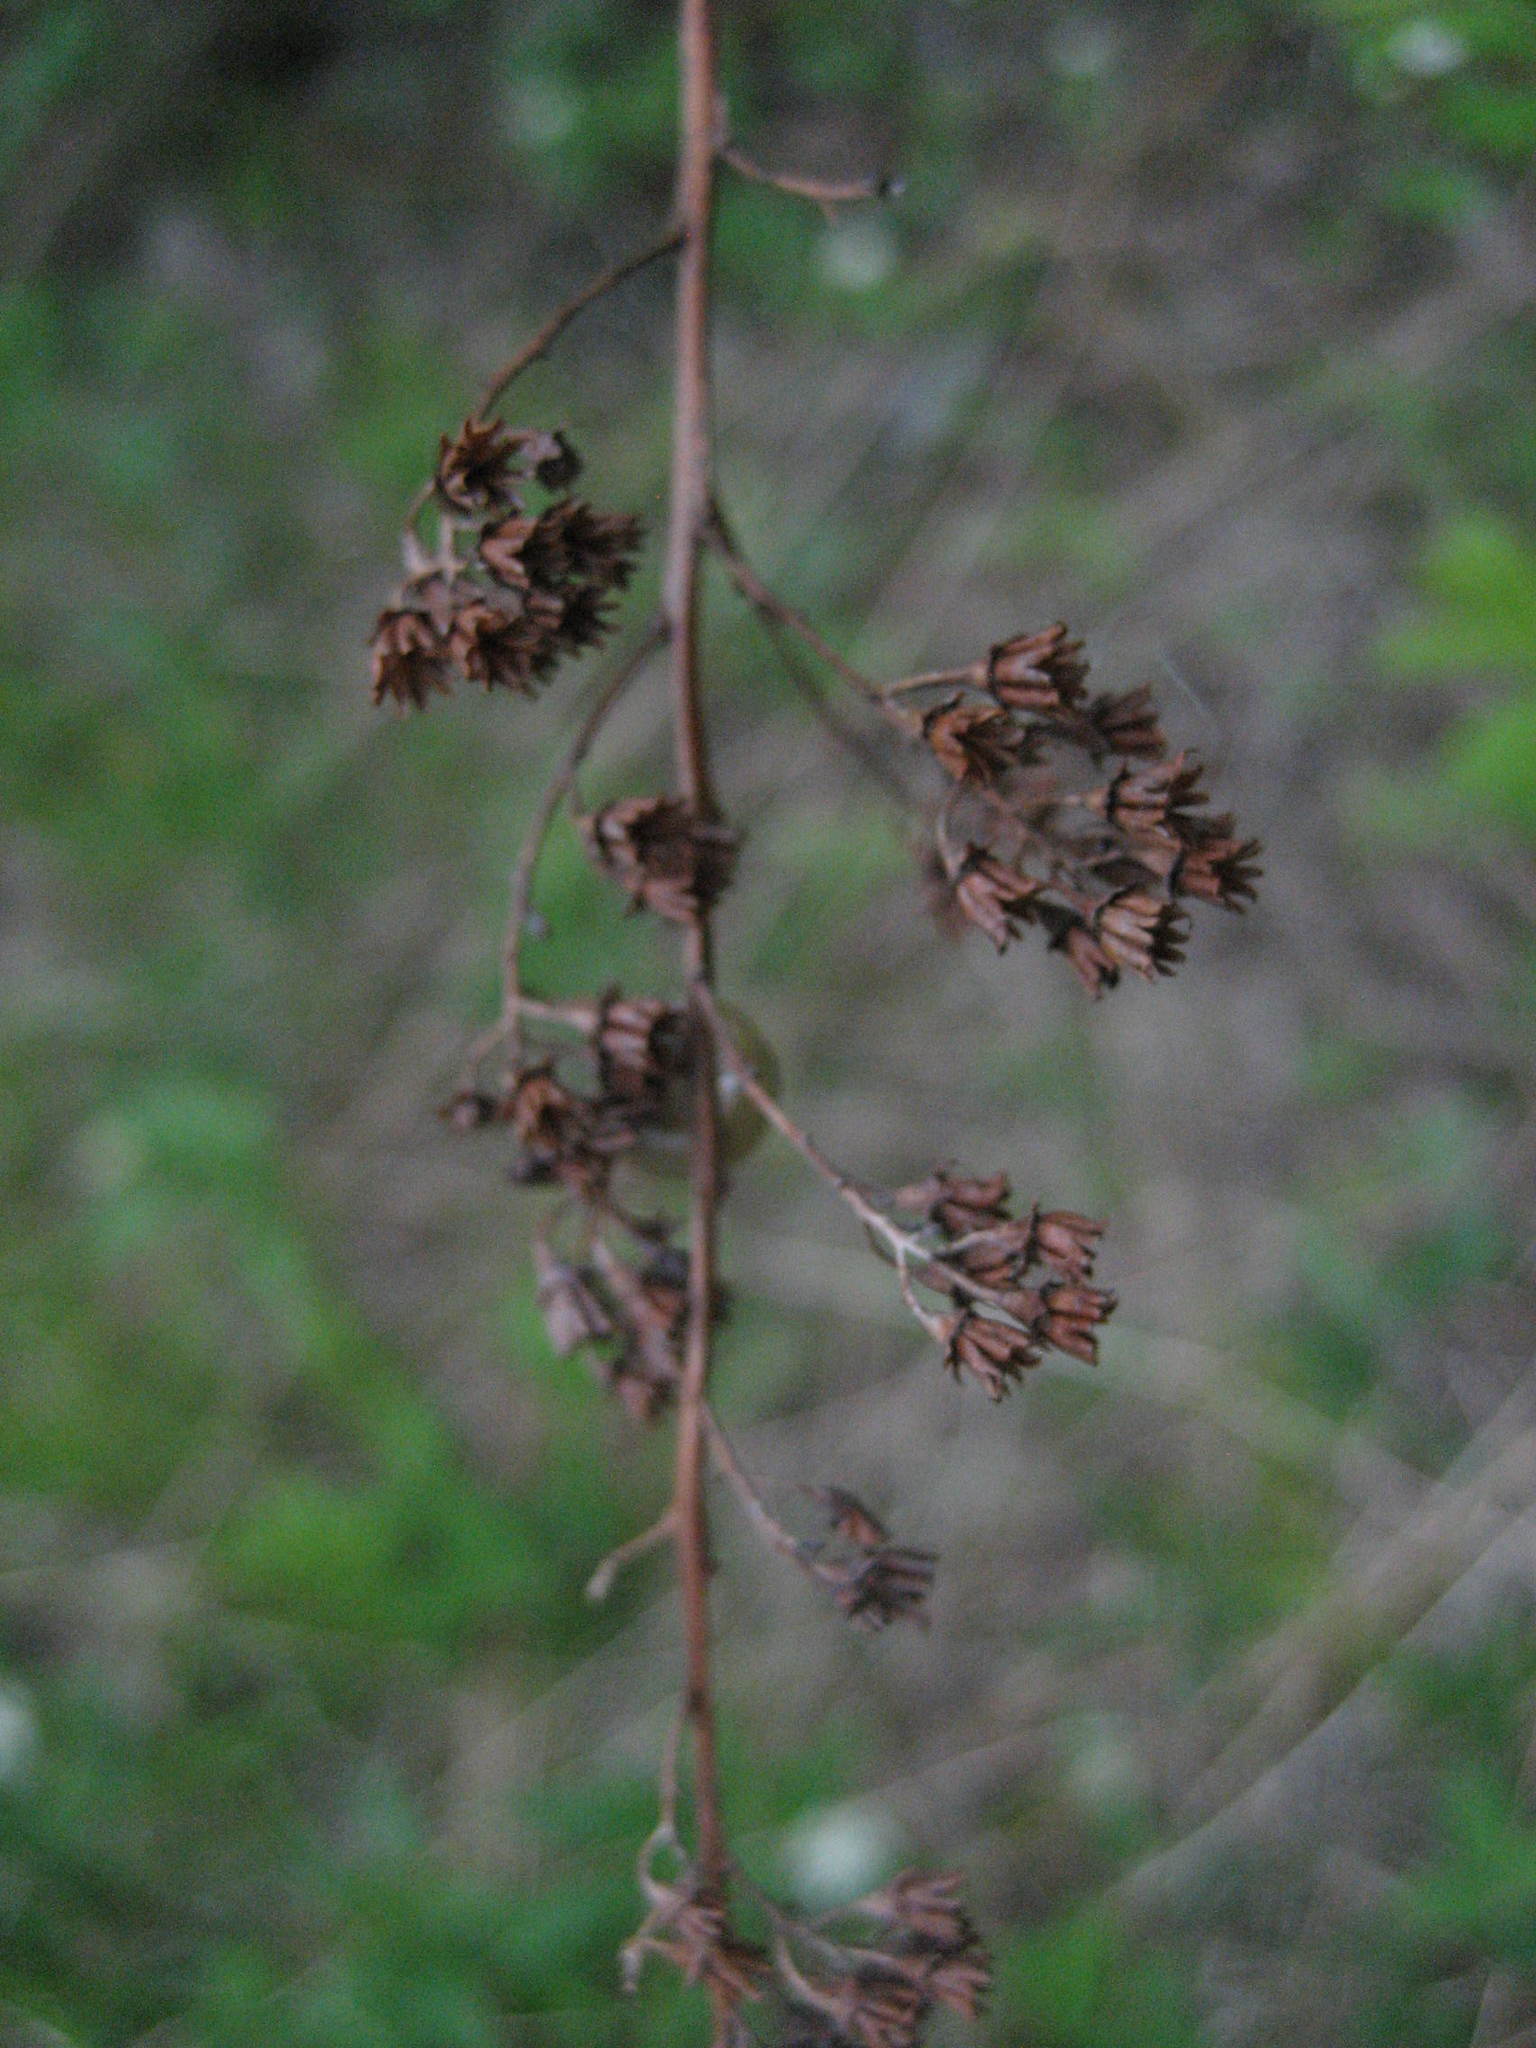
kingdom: Plantae
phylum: Tracheophyta
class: Magnoliopsida
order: Rosales
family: Rosaceae
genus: Spiraea
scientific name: Spiraea alba
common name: Pale bridewort
